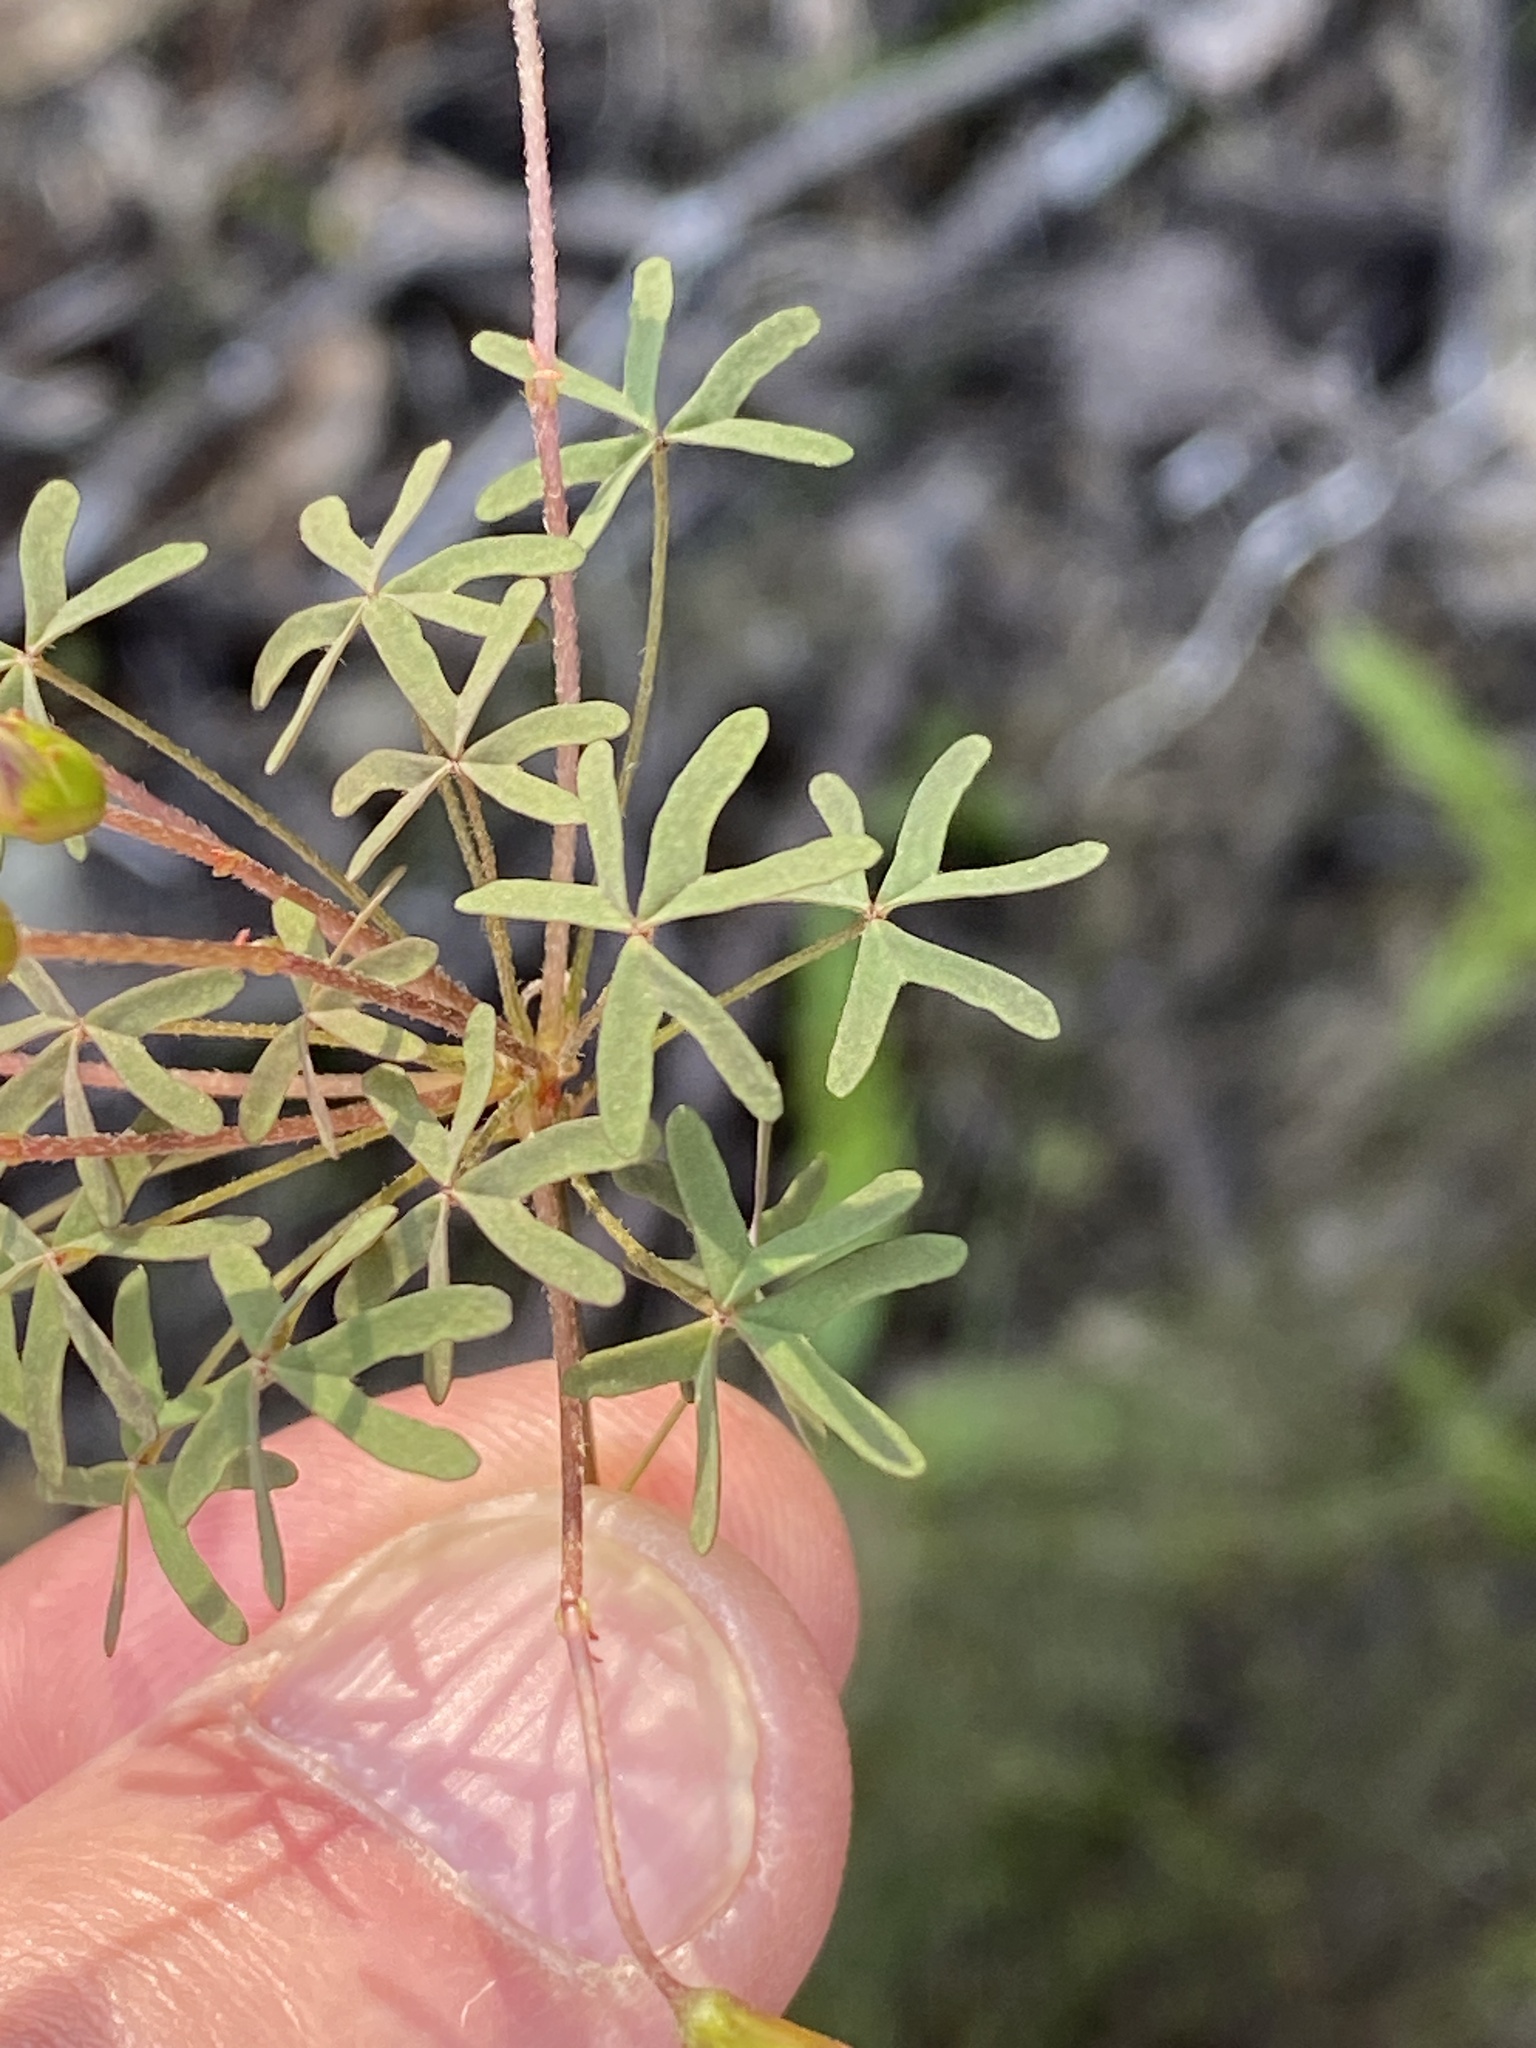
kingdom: Plantae
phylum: Tracheophyta
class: Magnoliopsida
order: Oxalidales
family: Oxalidaceae
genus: Oxalis
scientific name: Oxalis heterophylla
